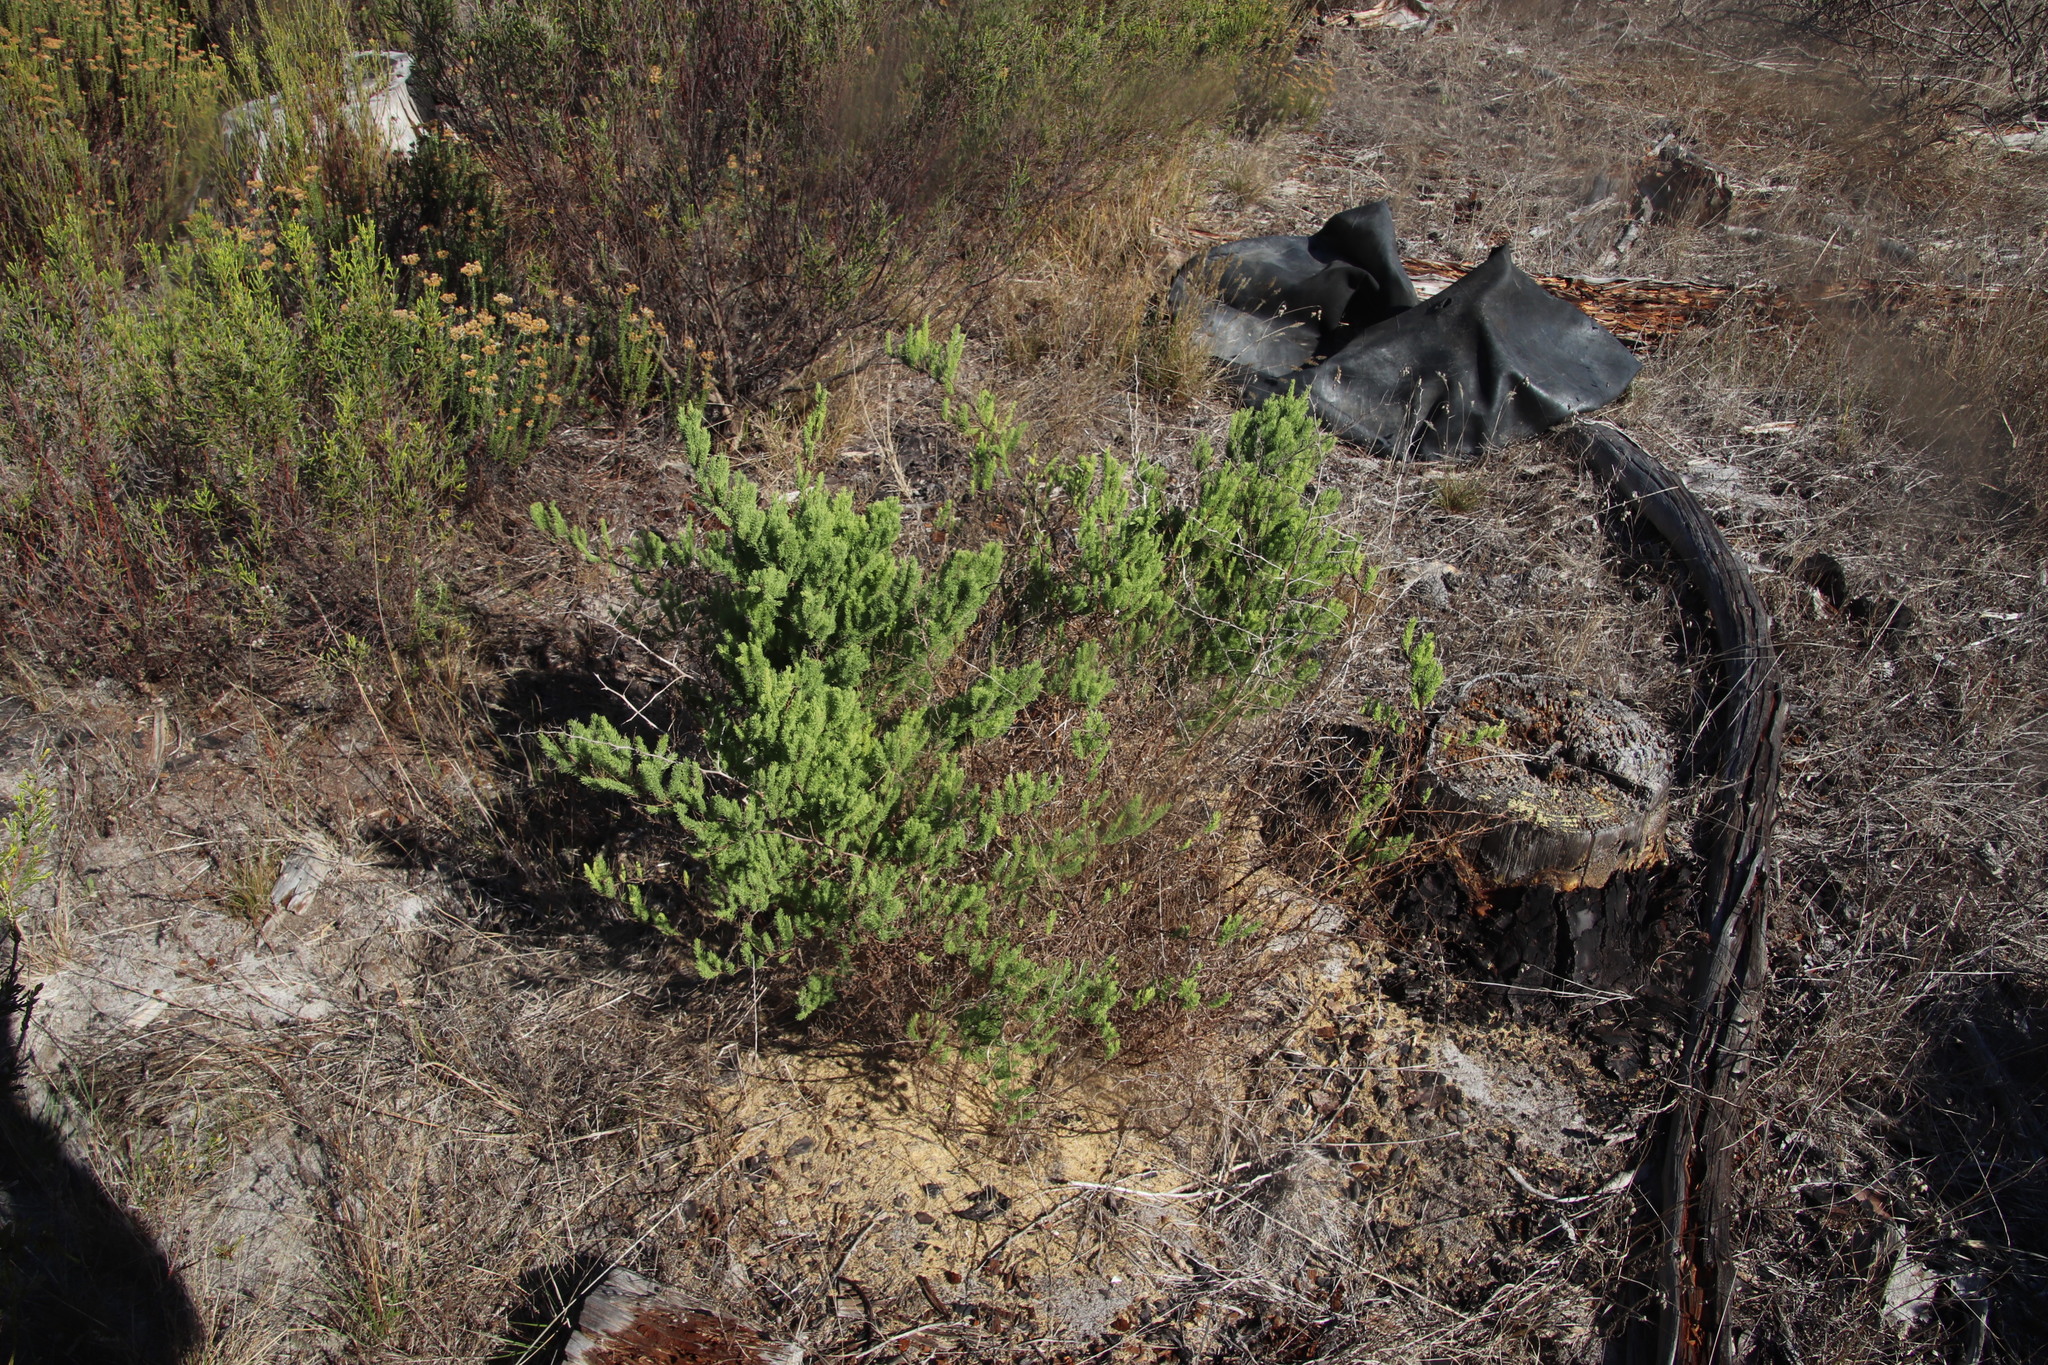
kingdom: Plantae
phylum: Tracheophyta
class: Liliopsida
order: Asparagales
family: Asparagaceae
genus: Asparagus
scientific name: Asparagus rubicundus
